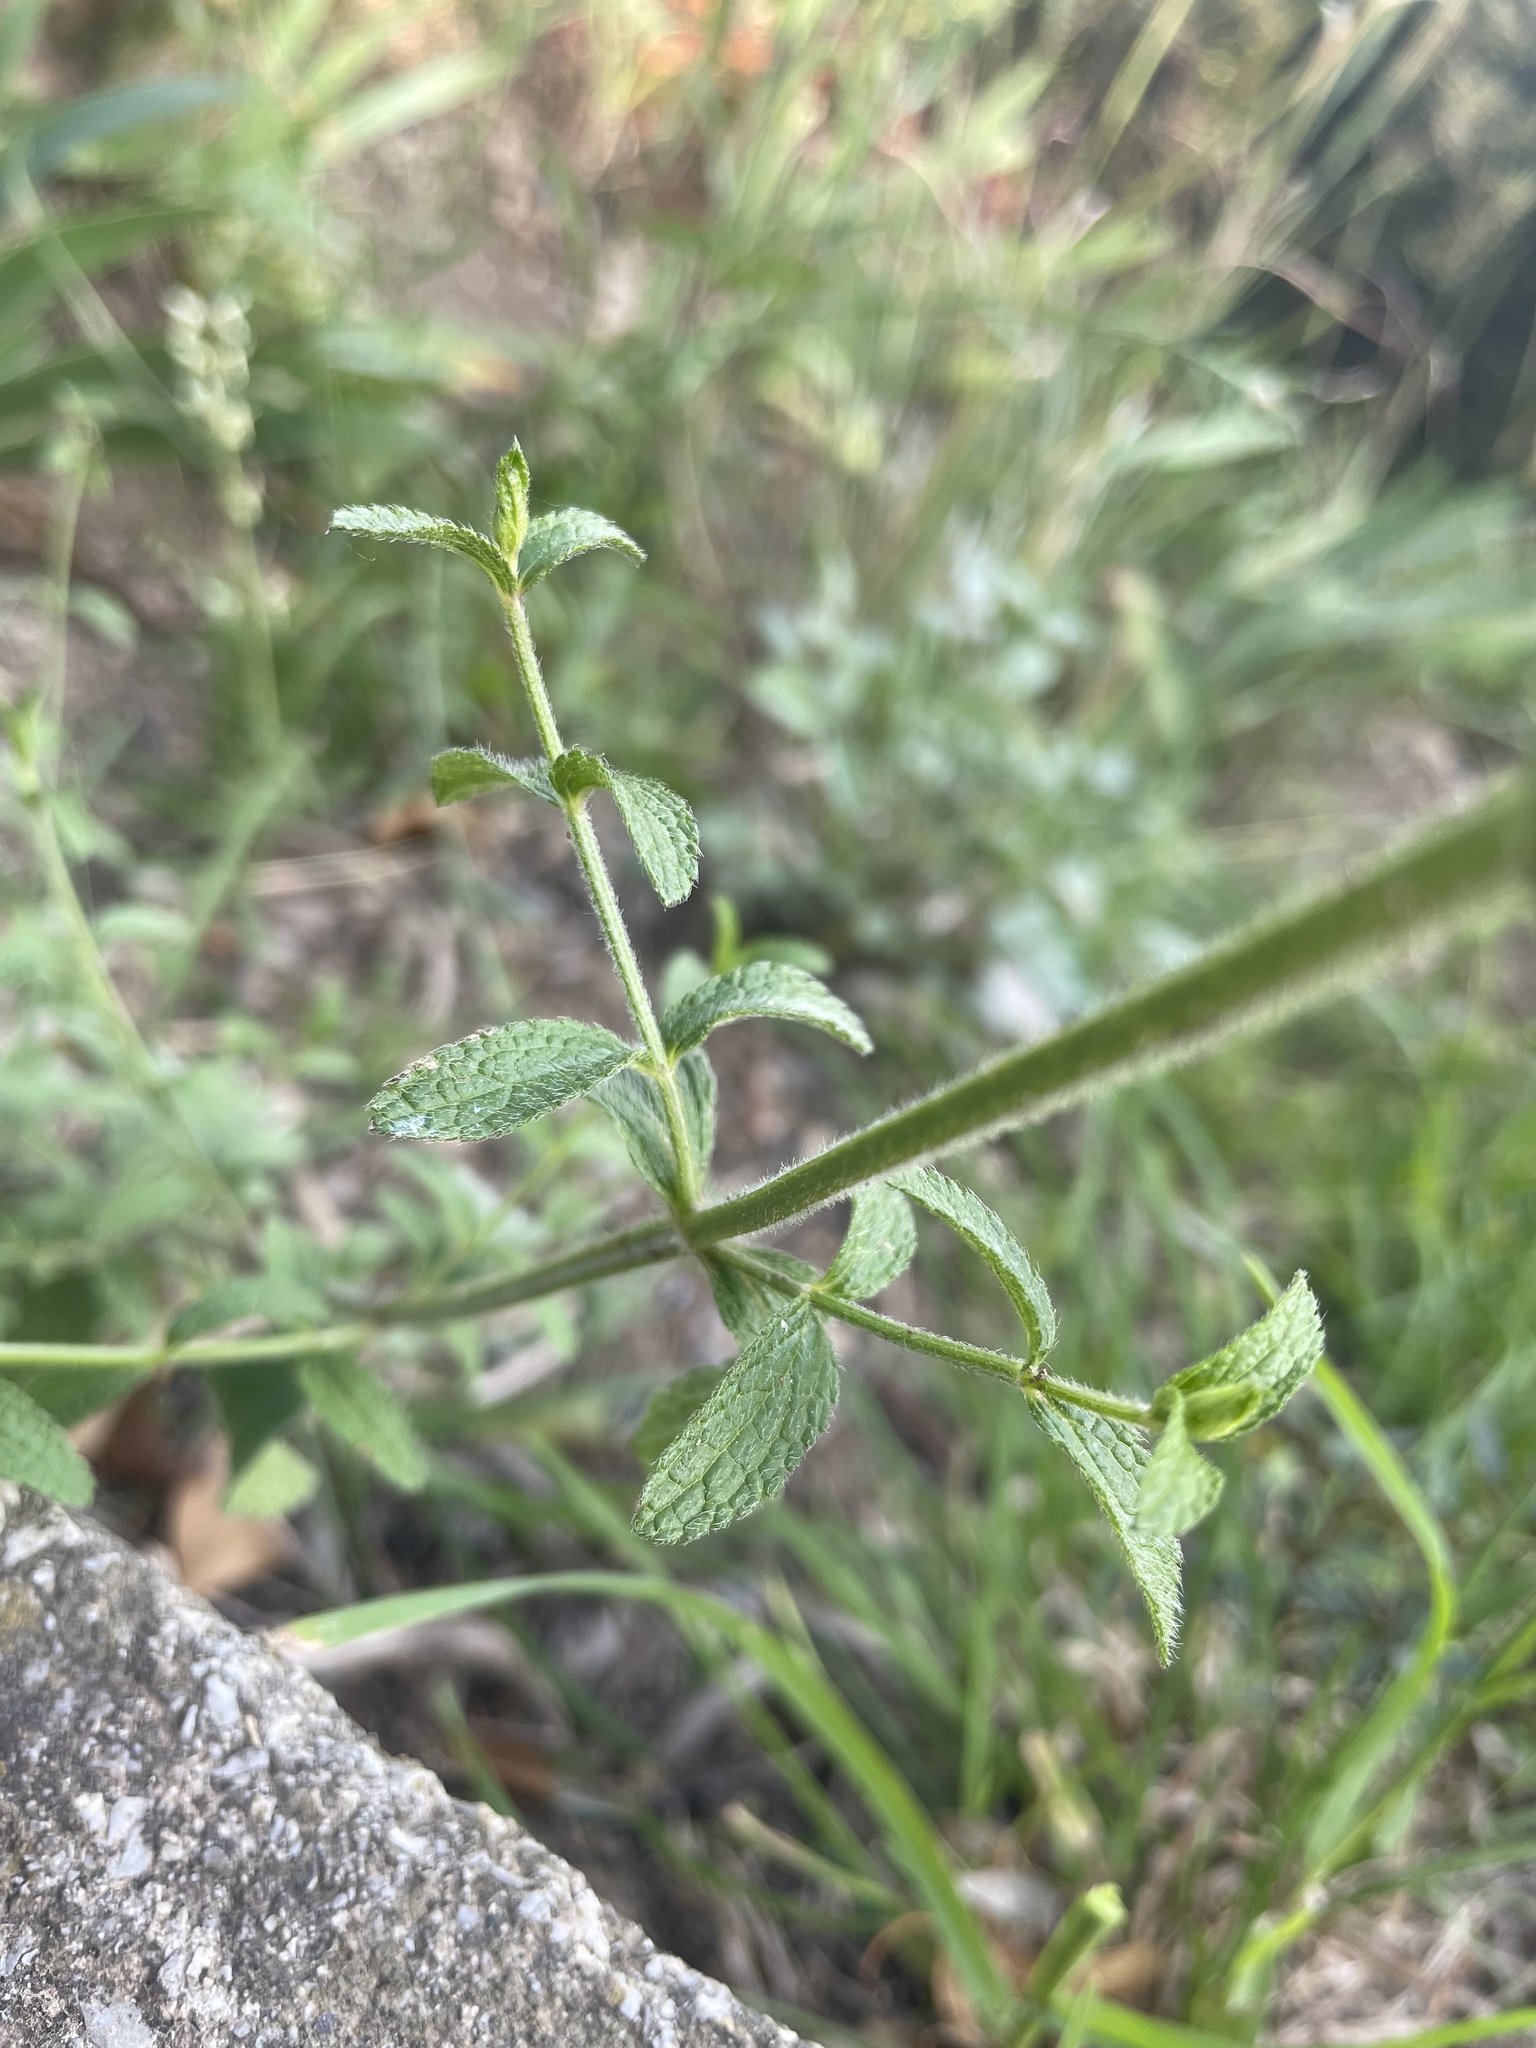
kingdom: Plantae
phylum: Tracheophyta
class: Magnoliopsida
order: Lamiales
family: Lamiaceae
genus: Stachys
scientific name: Stachys recta
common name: Perennial yellow-woundwort
